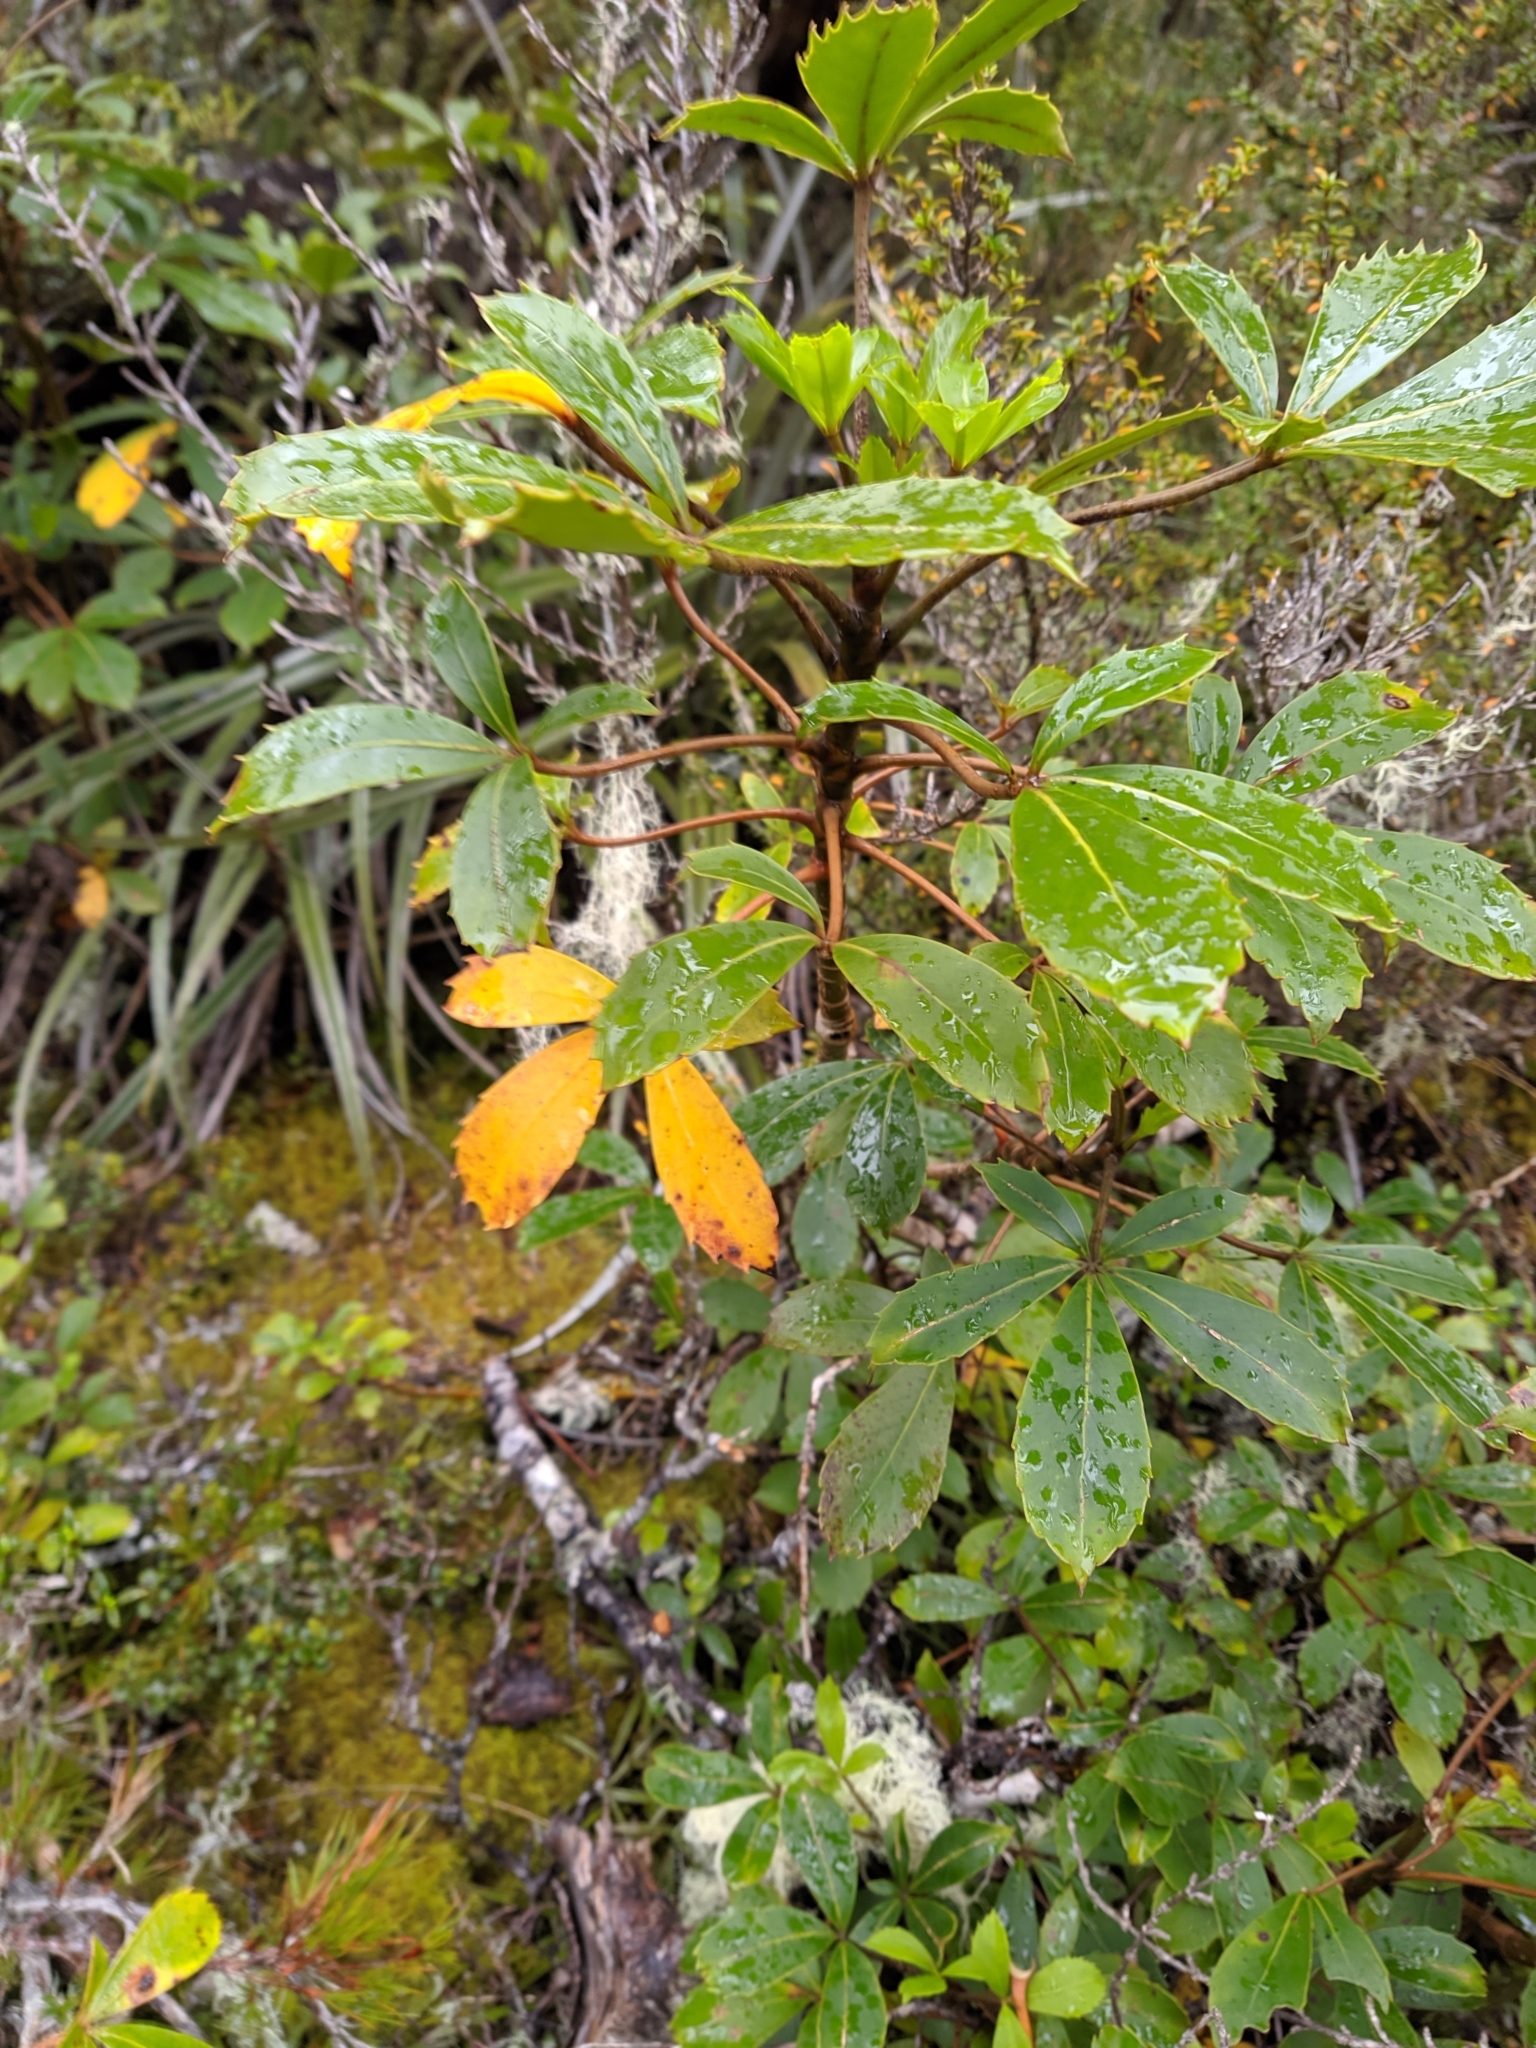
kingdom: Plantae
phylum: Tracheophyta
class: Magnoliopsida
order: Apiales
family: Araliaceae
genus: Neopanax
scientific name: Neopanax colensoi
